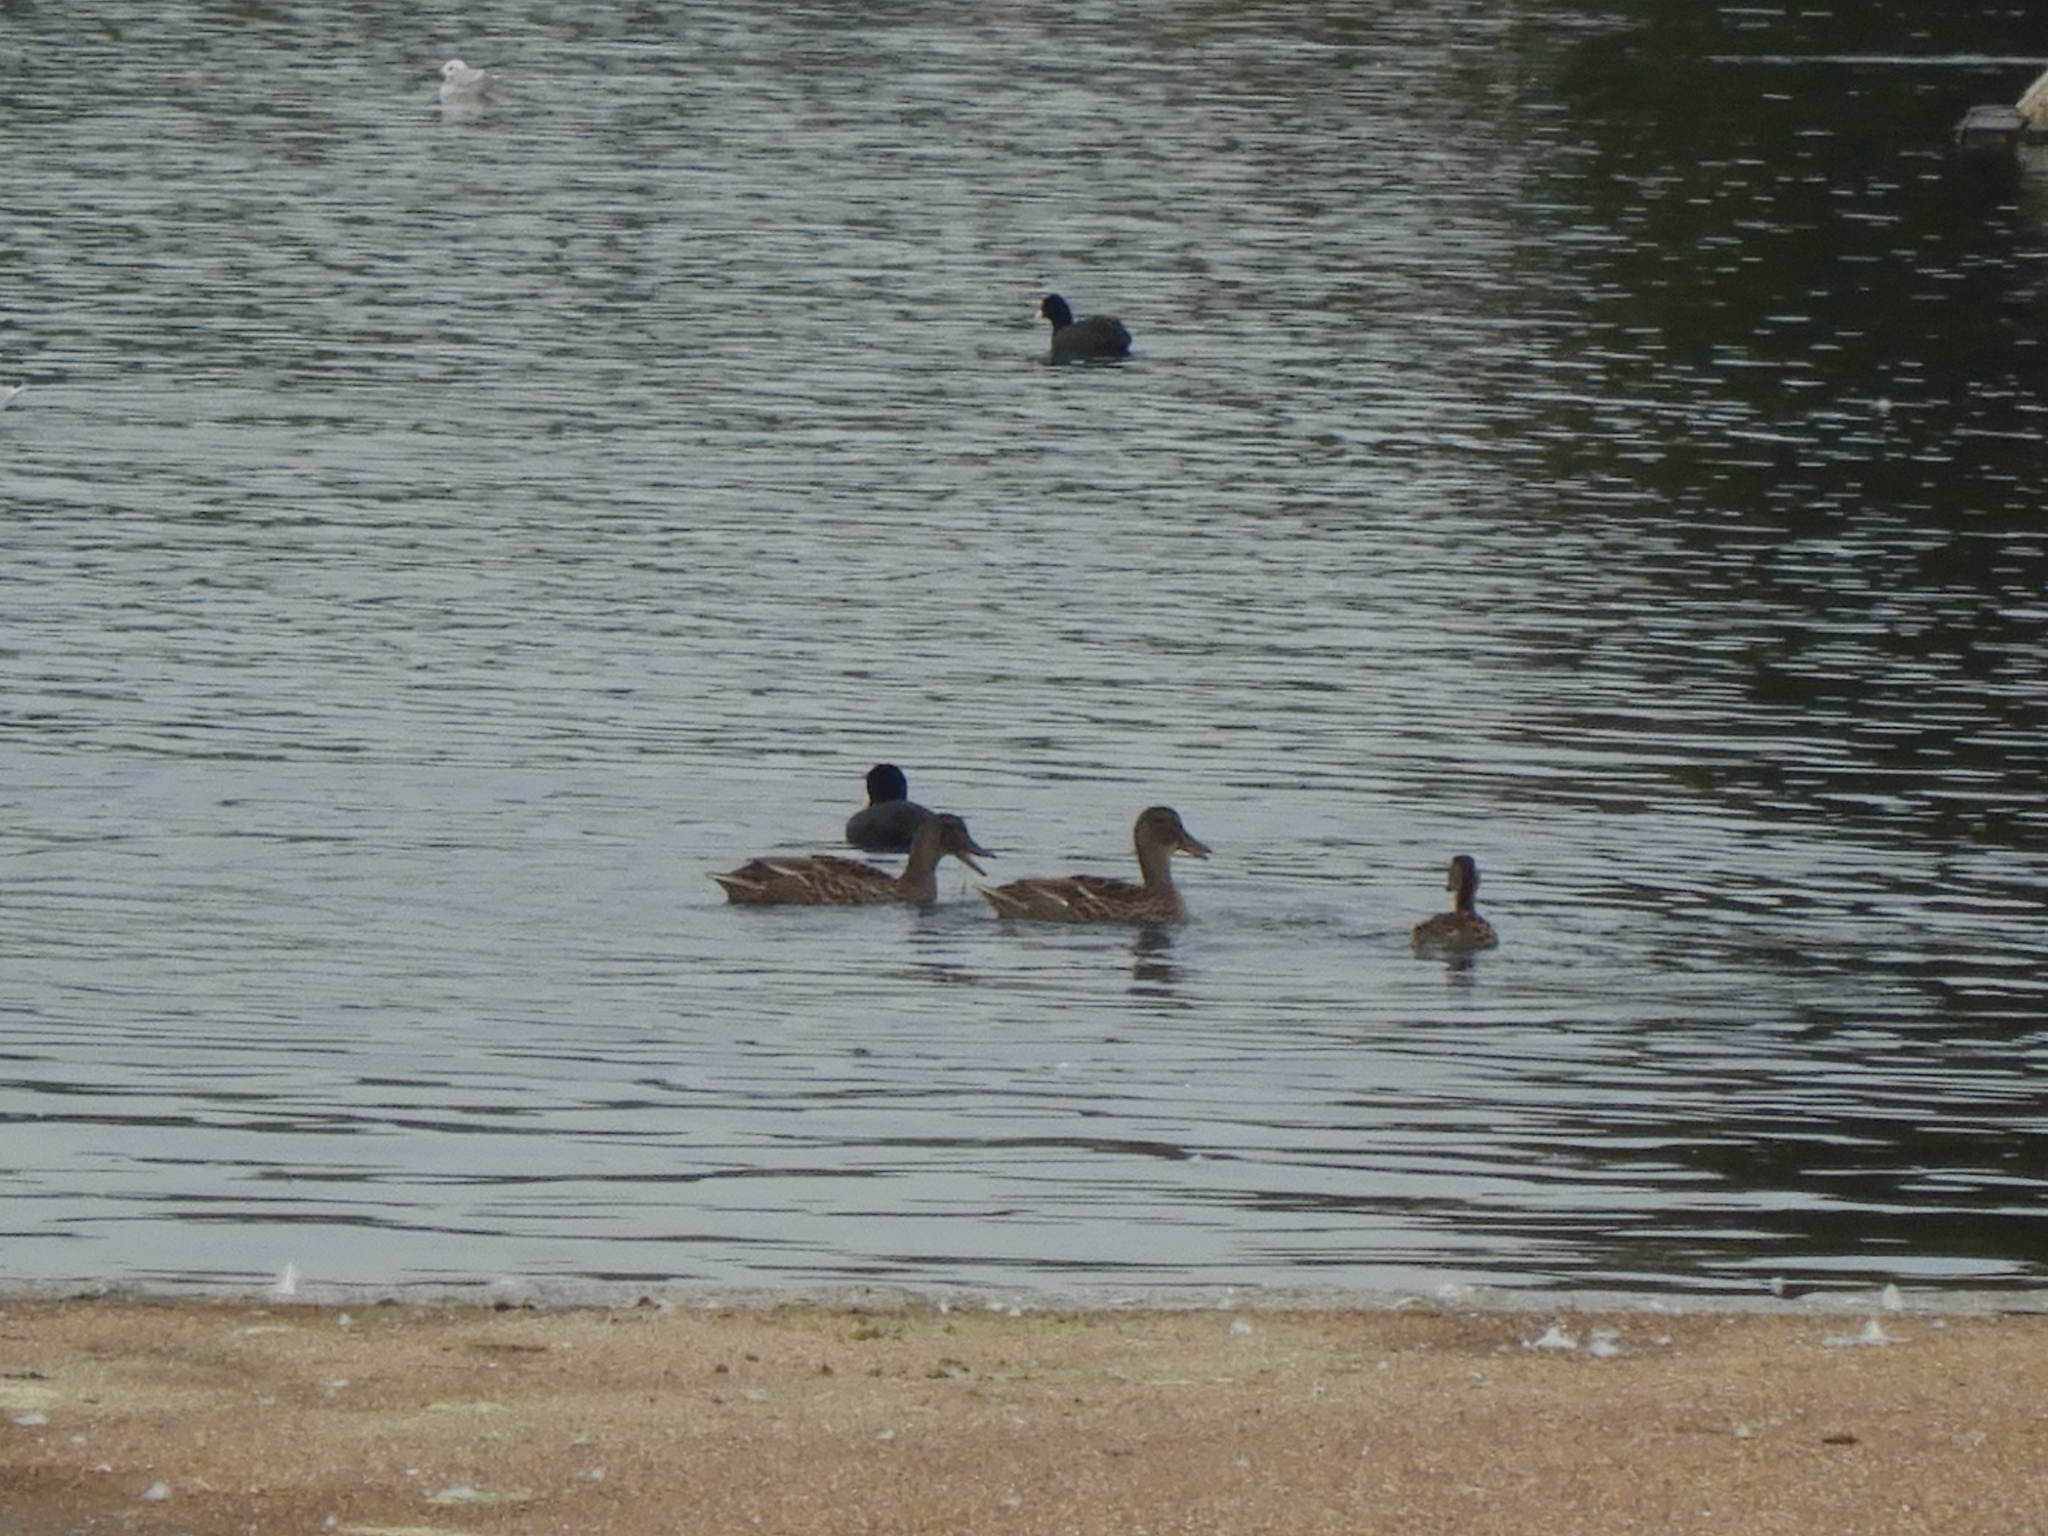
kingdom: Animalia
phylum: Chordata
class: Aves
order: Anseriformes
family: Anatidae
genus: Anas
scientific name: Anas platyrhynchos
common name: Mallard
